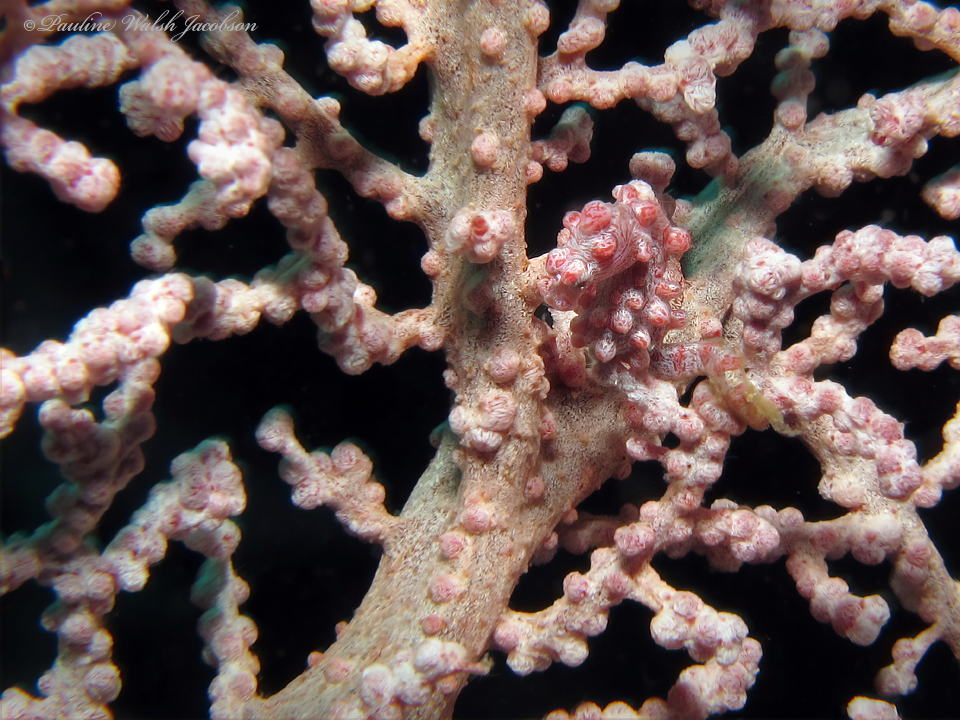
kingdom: Animalia
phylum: Cnidaria
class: Anthozoa
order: Malacalcyonacea
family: Anthogorgiidae
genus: Muricella
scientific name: Muricella plectana
